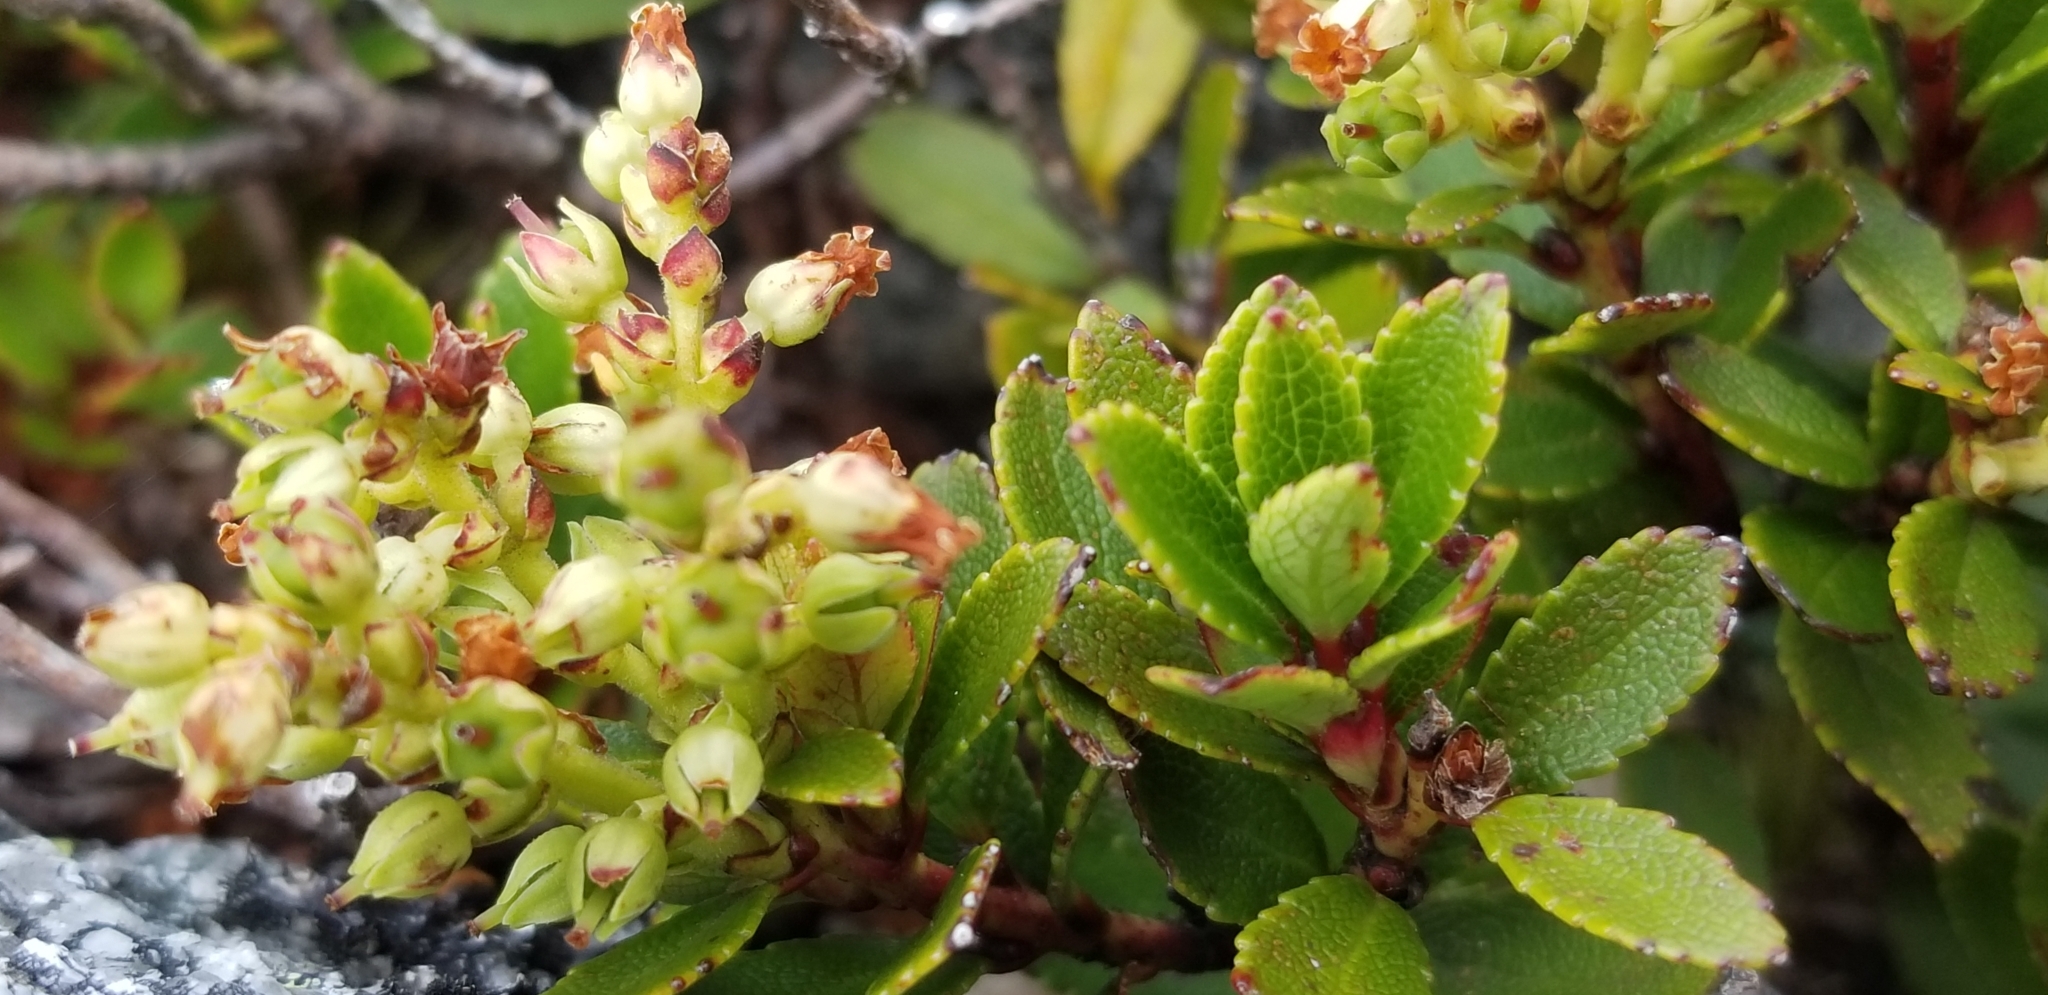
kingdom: Plantae
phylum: Tracheophyta
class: Magnoliopsida
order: Ericales
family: Ericaceae
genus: Gaultheria
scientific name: Gaultheria crassa
